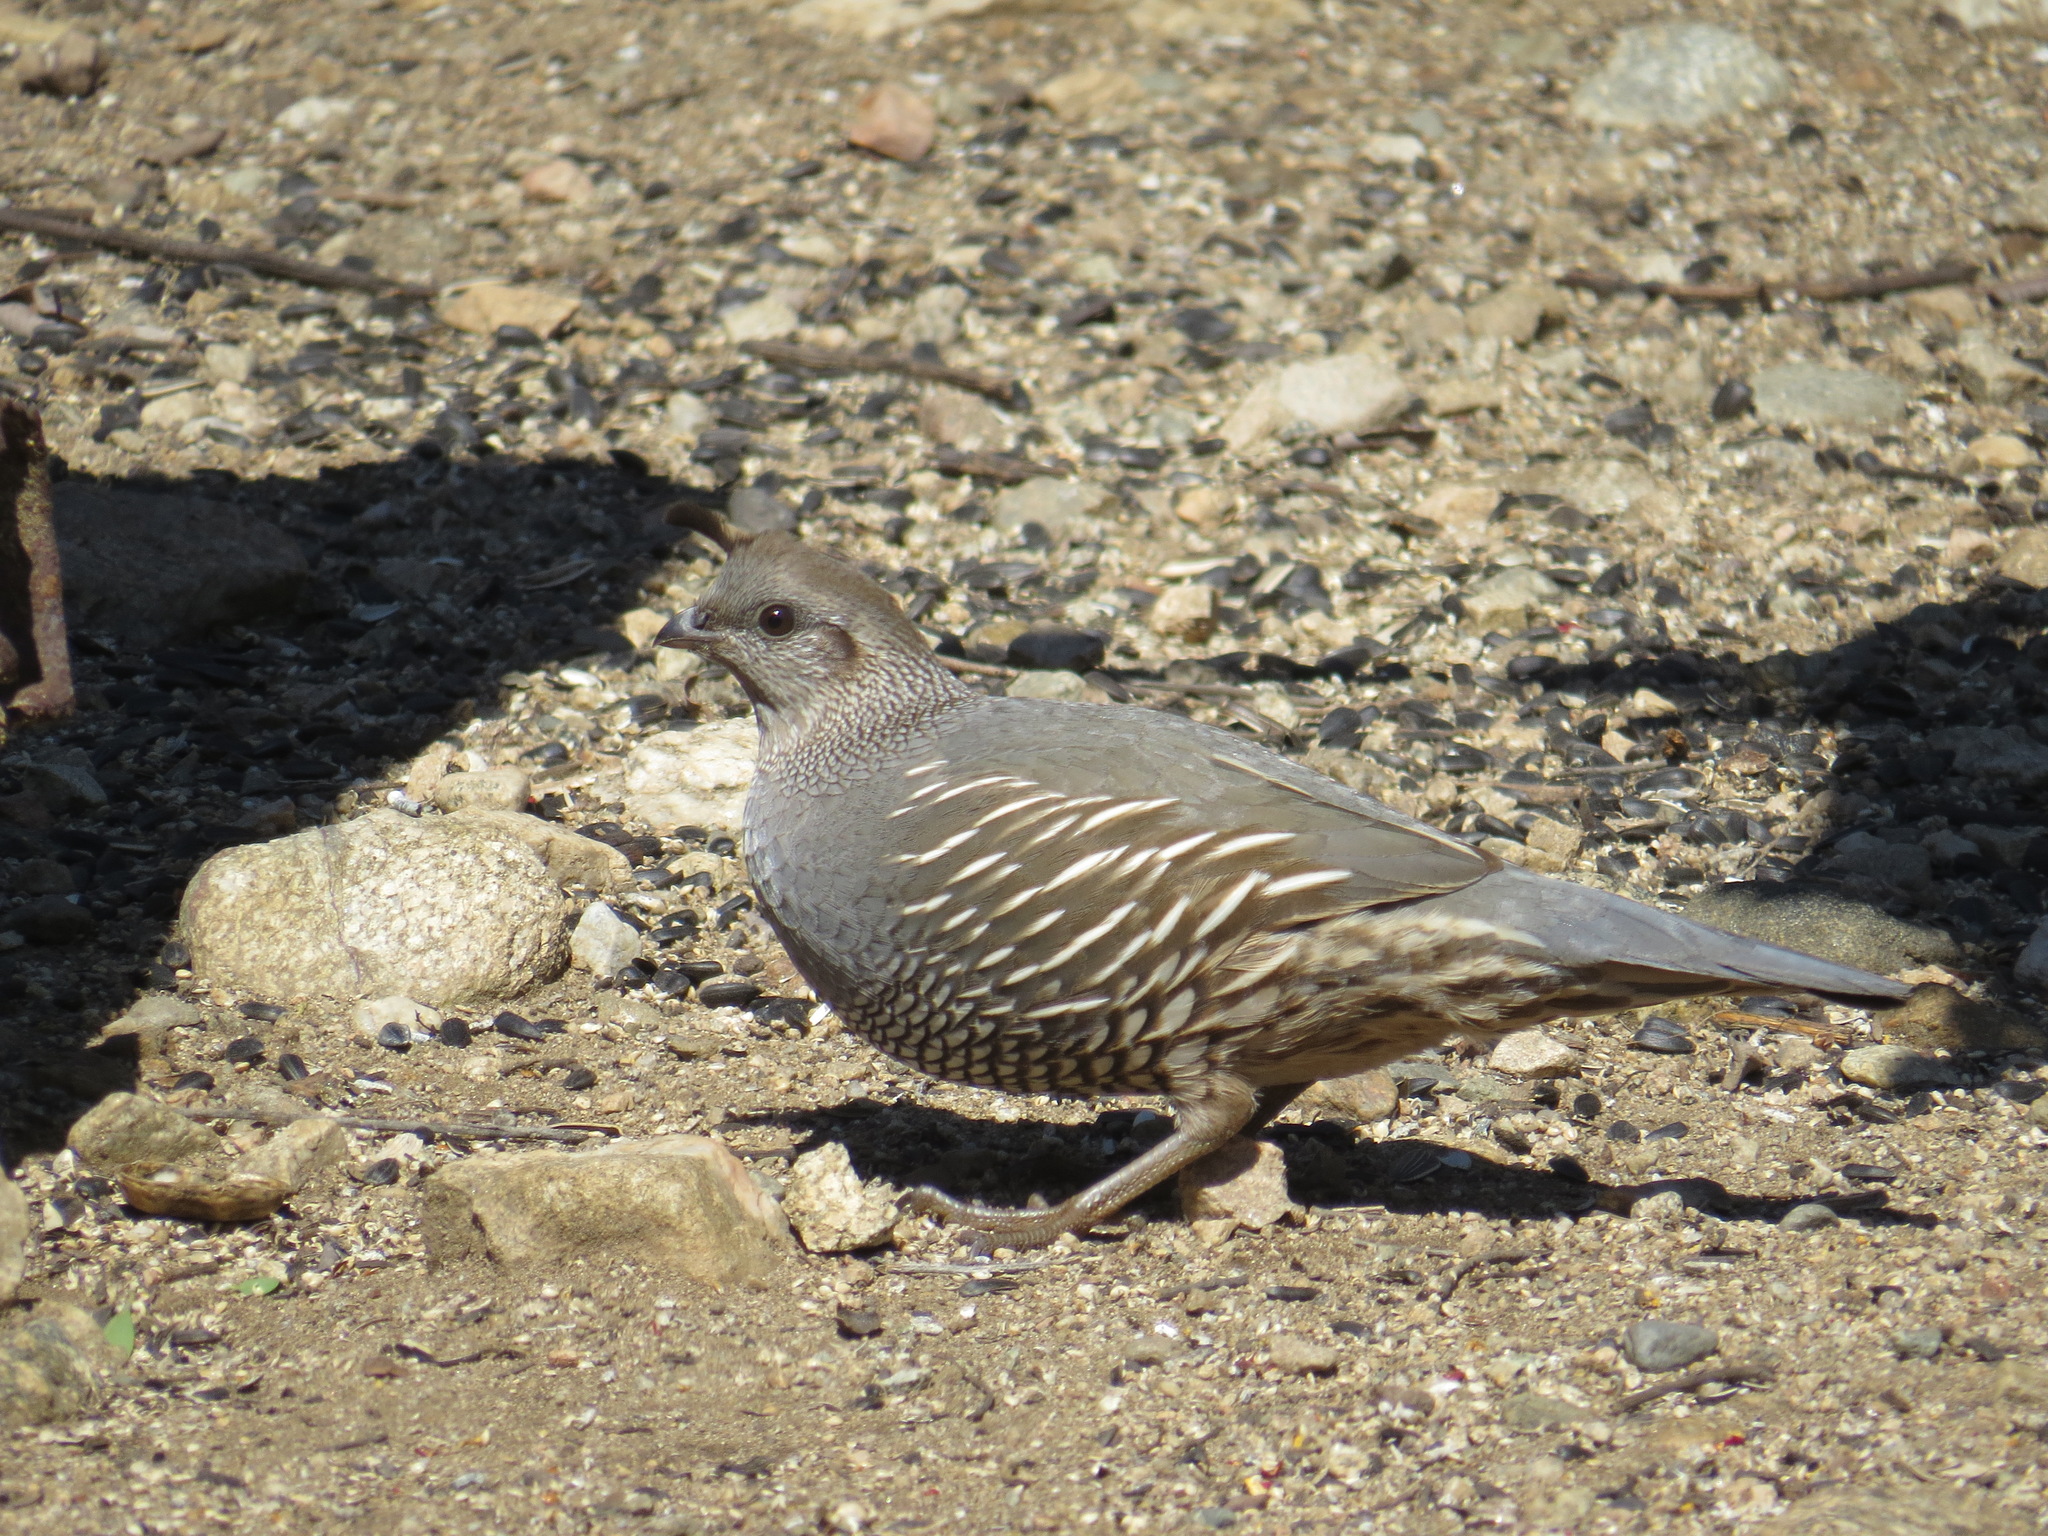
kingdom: Animalia
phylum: Chordata
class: Aves
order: Galliformes
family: Odontophoridae
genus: Callipepla
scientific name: Callipepla californica
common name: California quail
